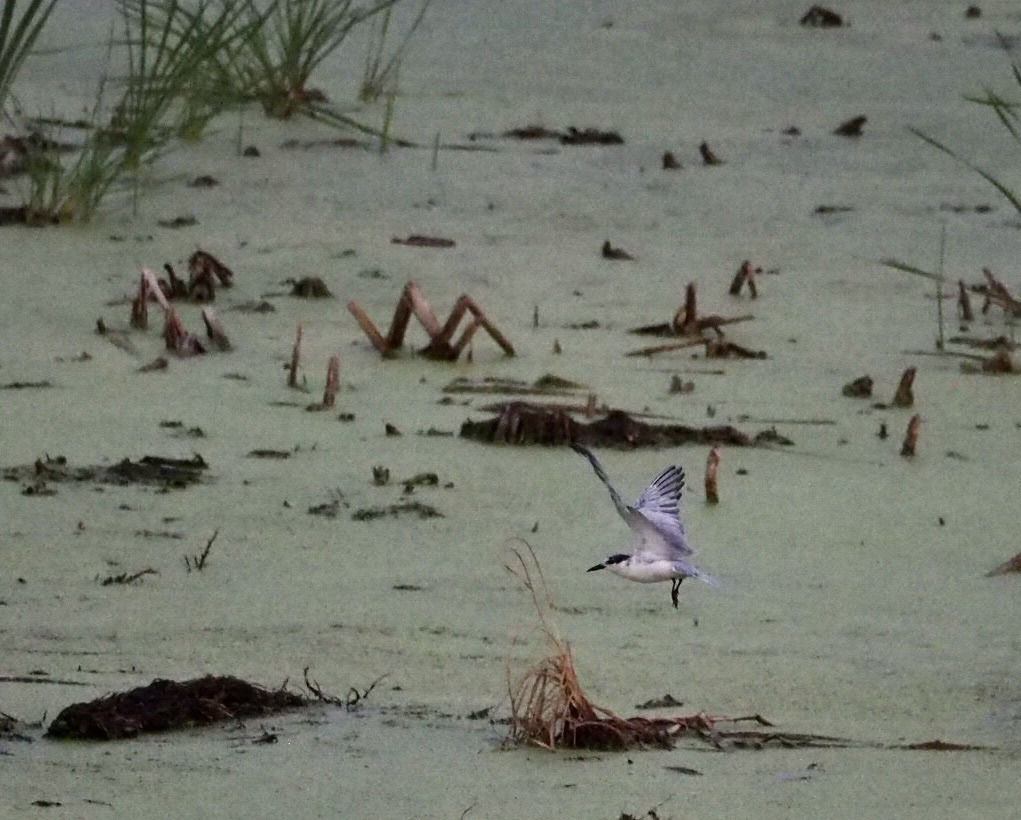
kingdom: Animalia
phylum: Chordata
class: Aves
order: Charadriiformes
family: Laridae
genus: Chlidonias
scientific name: Chlidonias hybrida
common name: Whiskered tern
